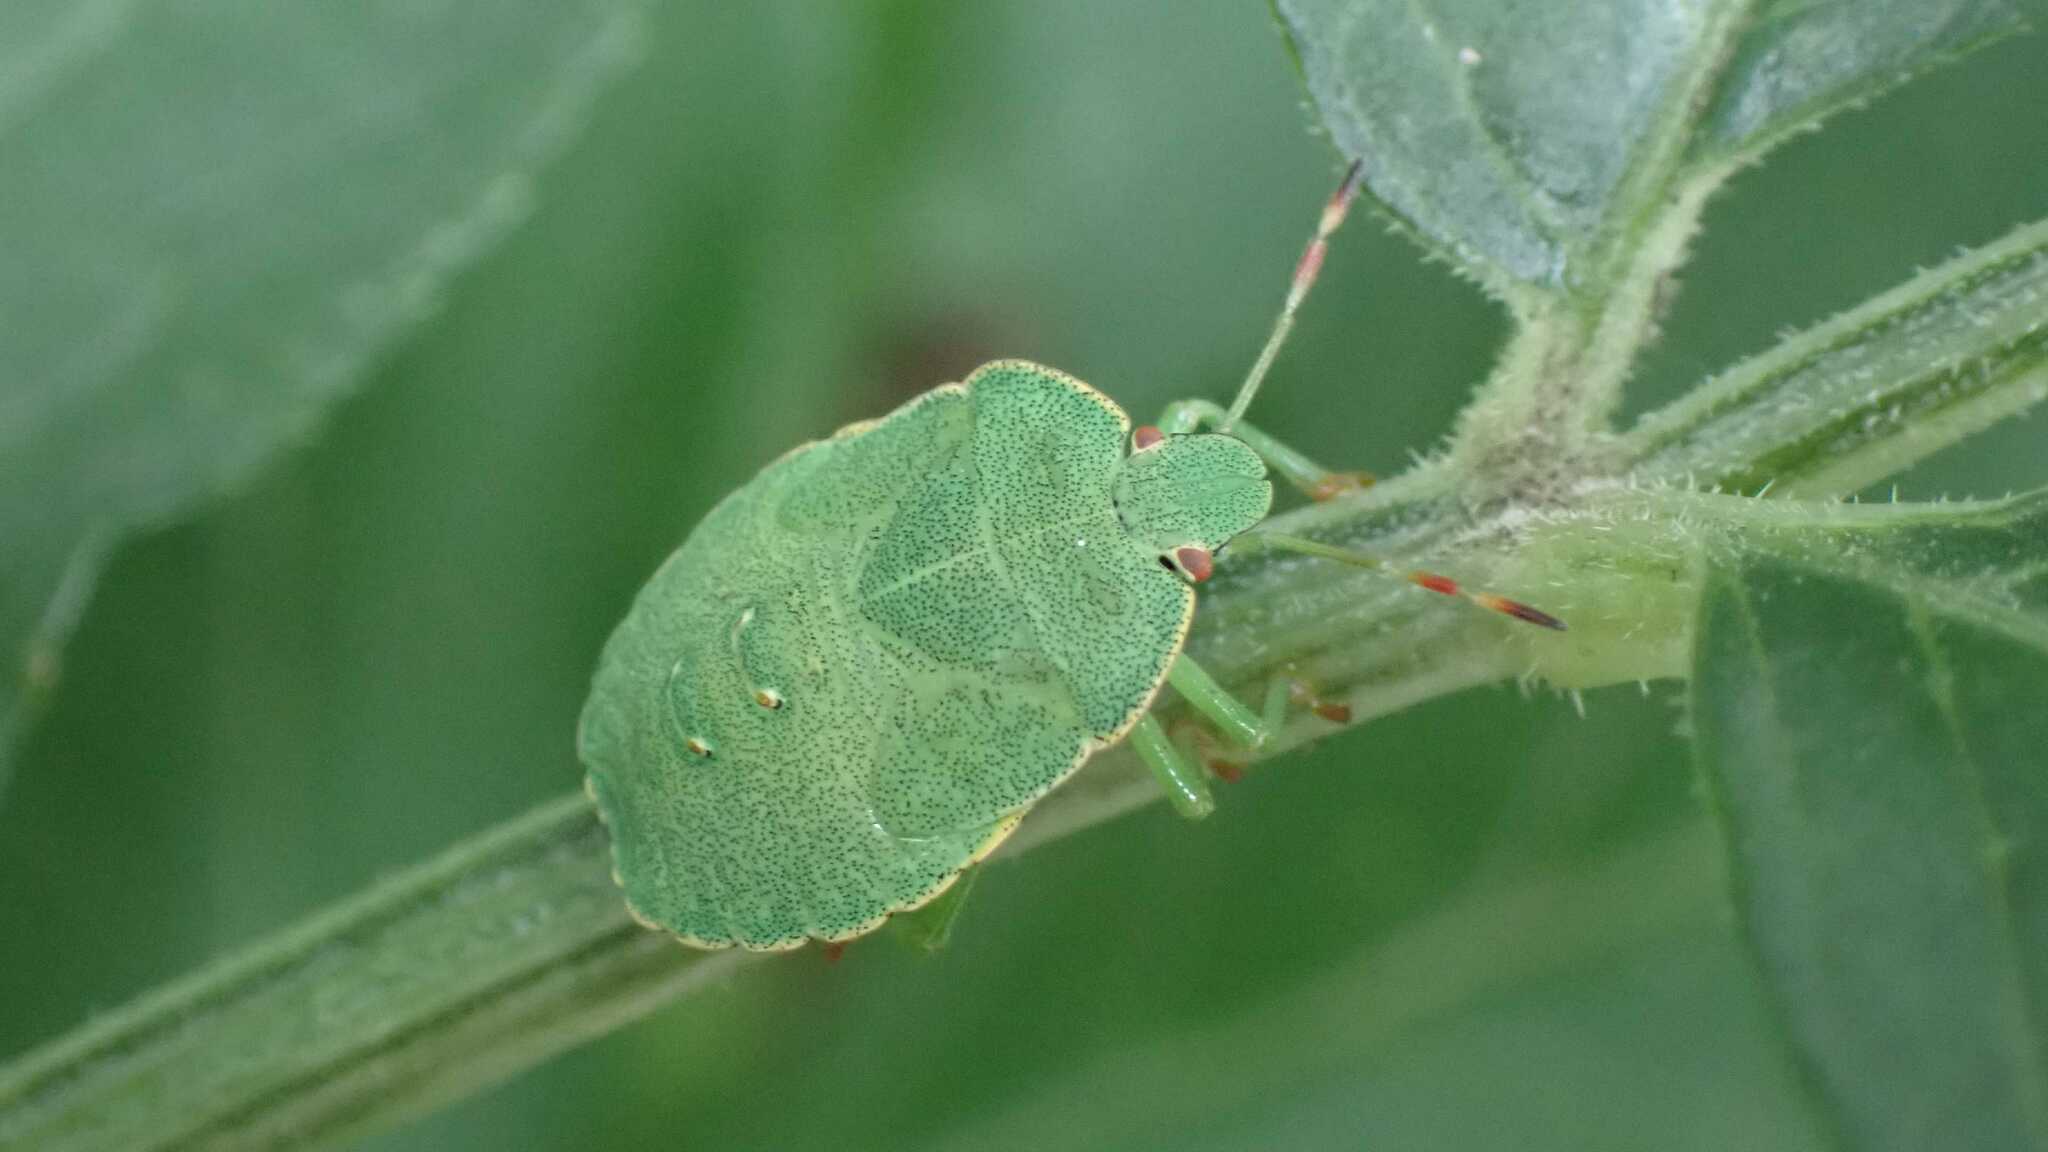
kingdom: Animalia
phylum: Arthropoda
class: Insecta
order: Hemiptera
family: Pentatomidae
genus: Palomena
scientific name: Palomena prasina
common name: Green shieldbug
